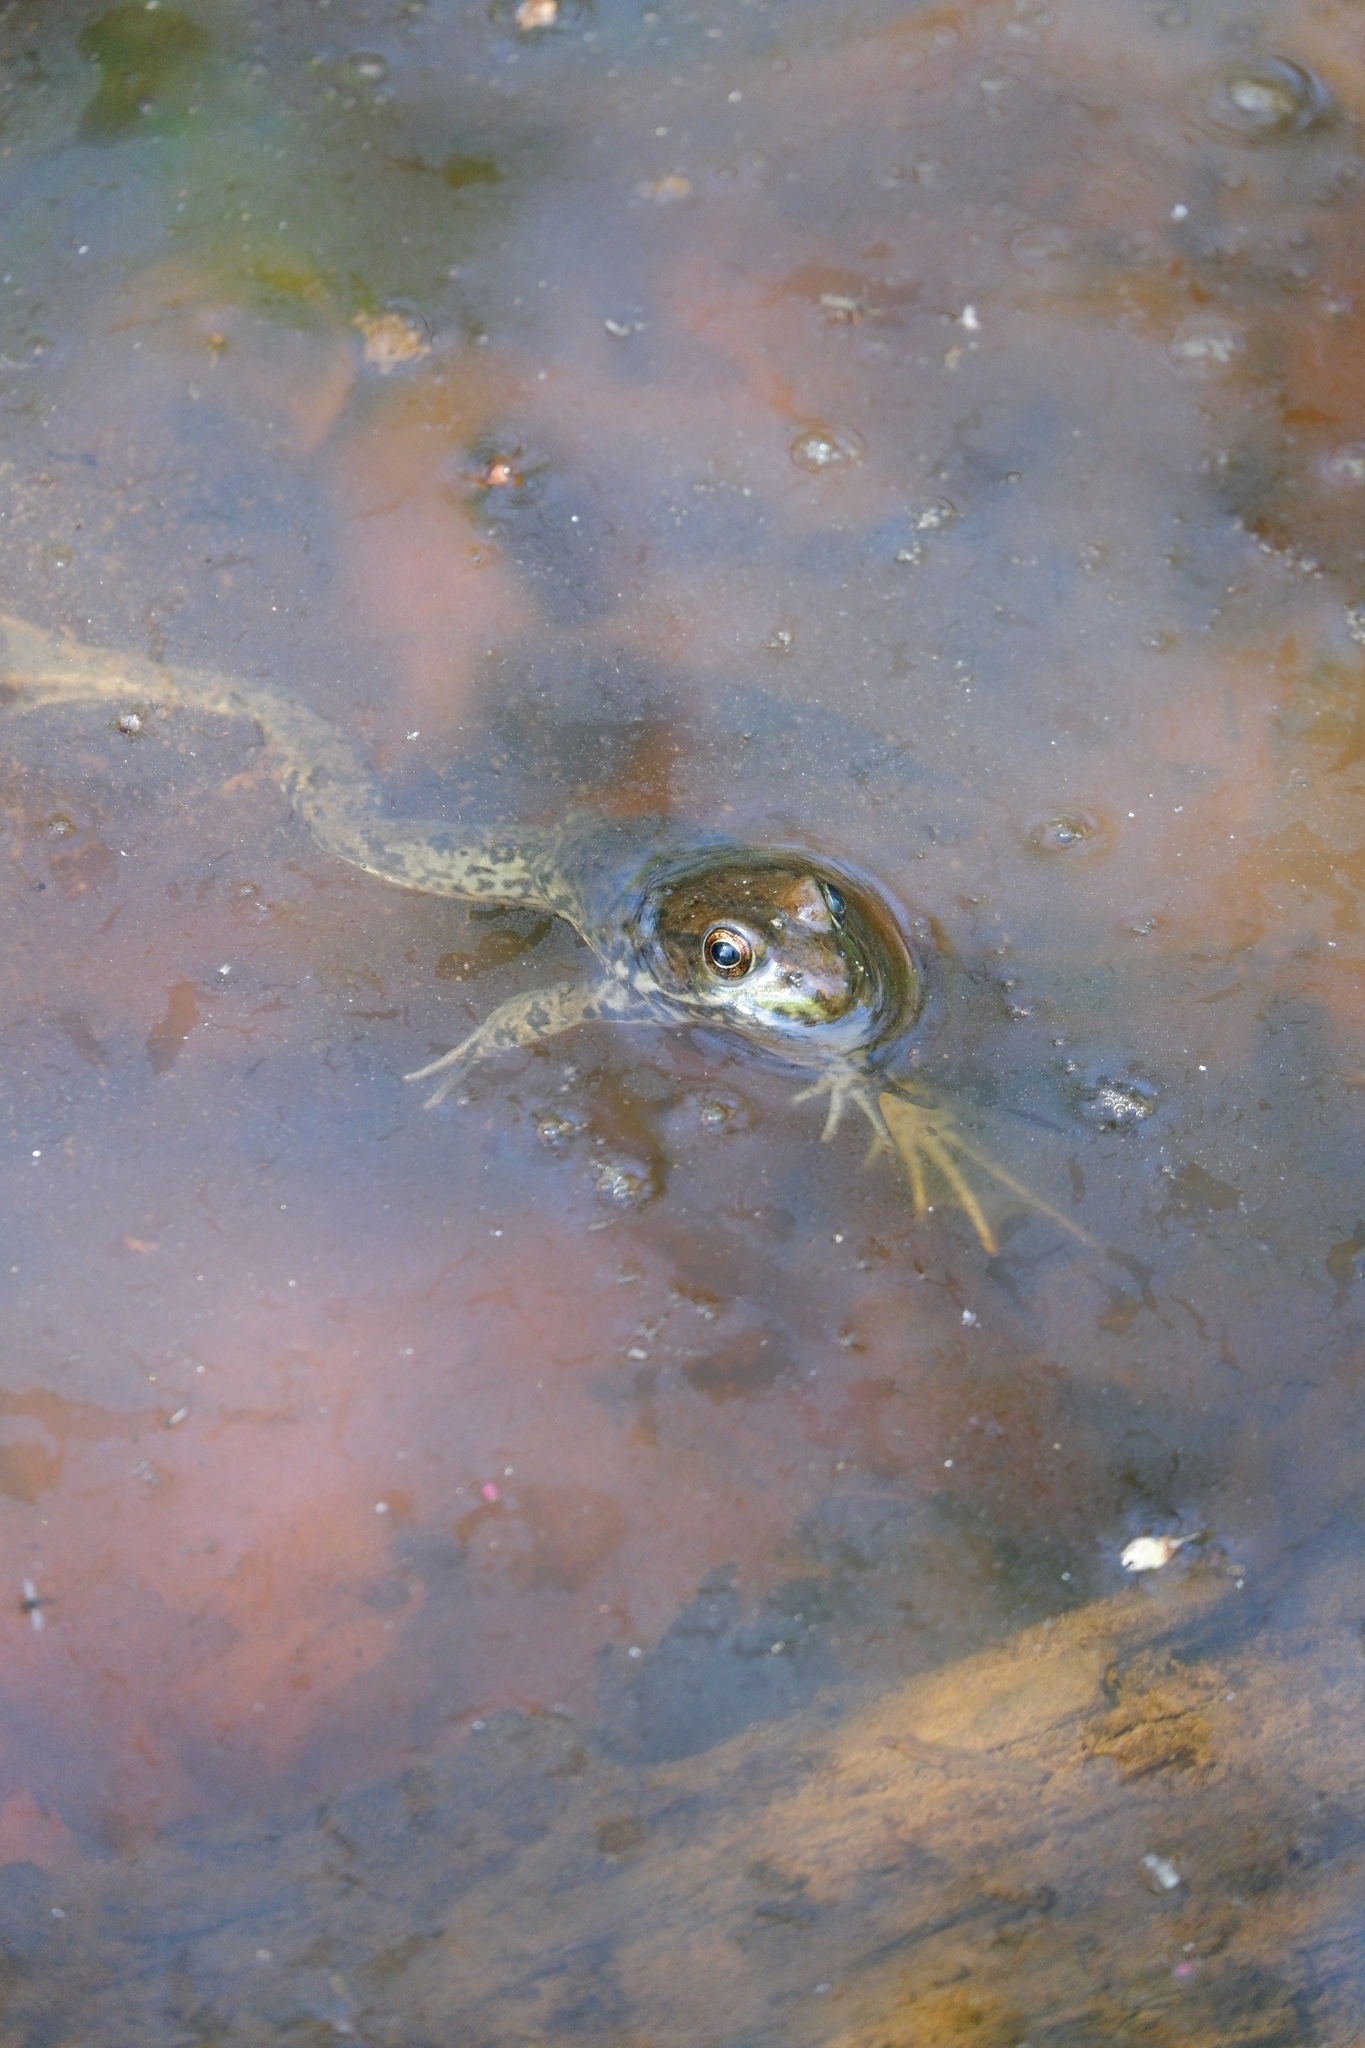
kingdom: Animalia
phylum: Chordata
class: Amphibia
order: Anura
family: Ranidae
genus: Lithobates
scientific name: Lithobates clamitans
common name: Green frog
